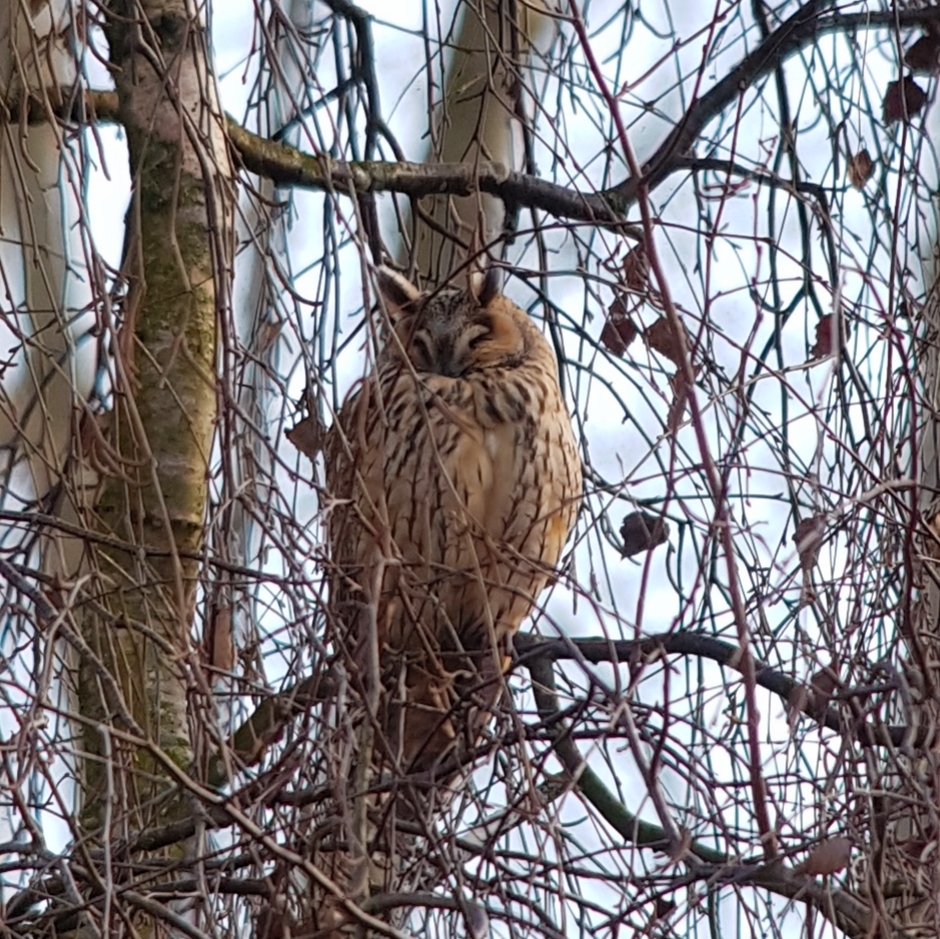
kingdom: Animalia
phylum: Chordata
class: Aves
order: Strigiformes
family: Strigidae
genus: Asio
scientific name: Asio otus
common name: Long-eared owl
